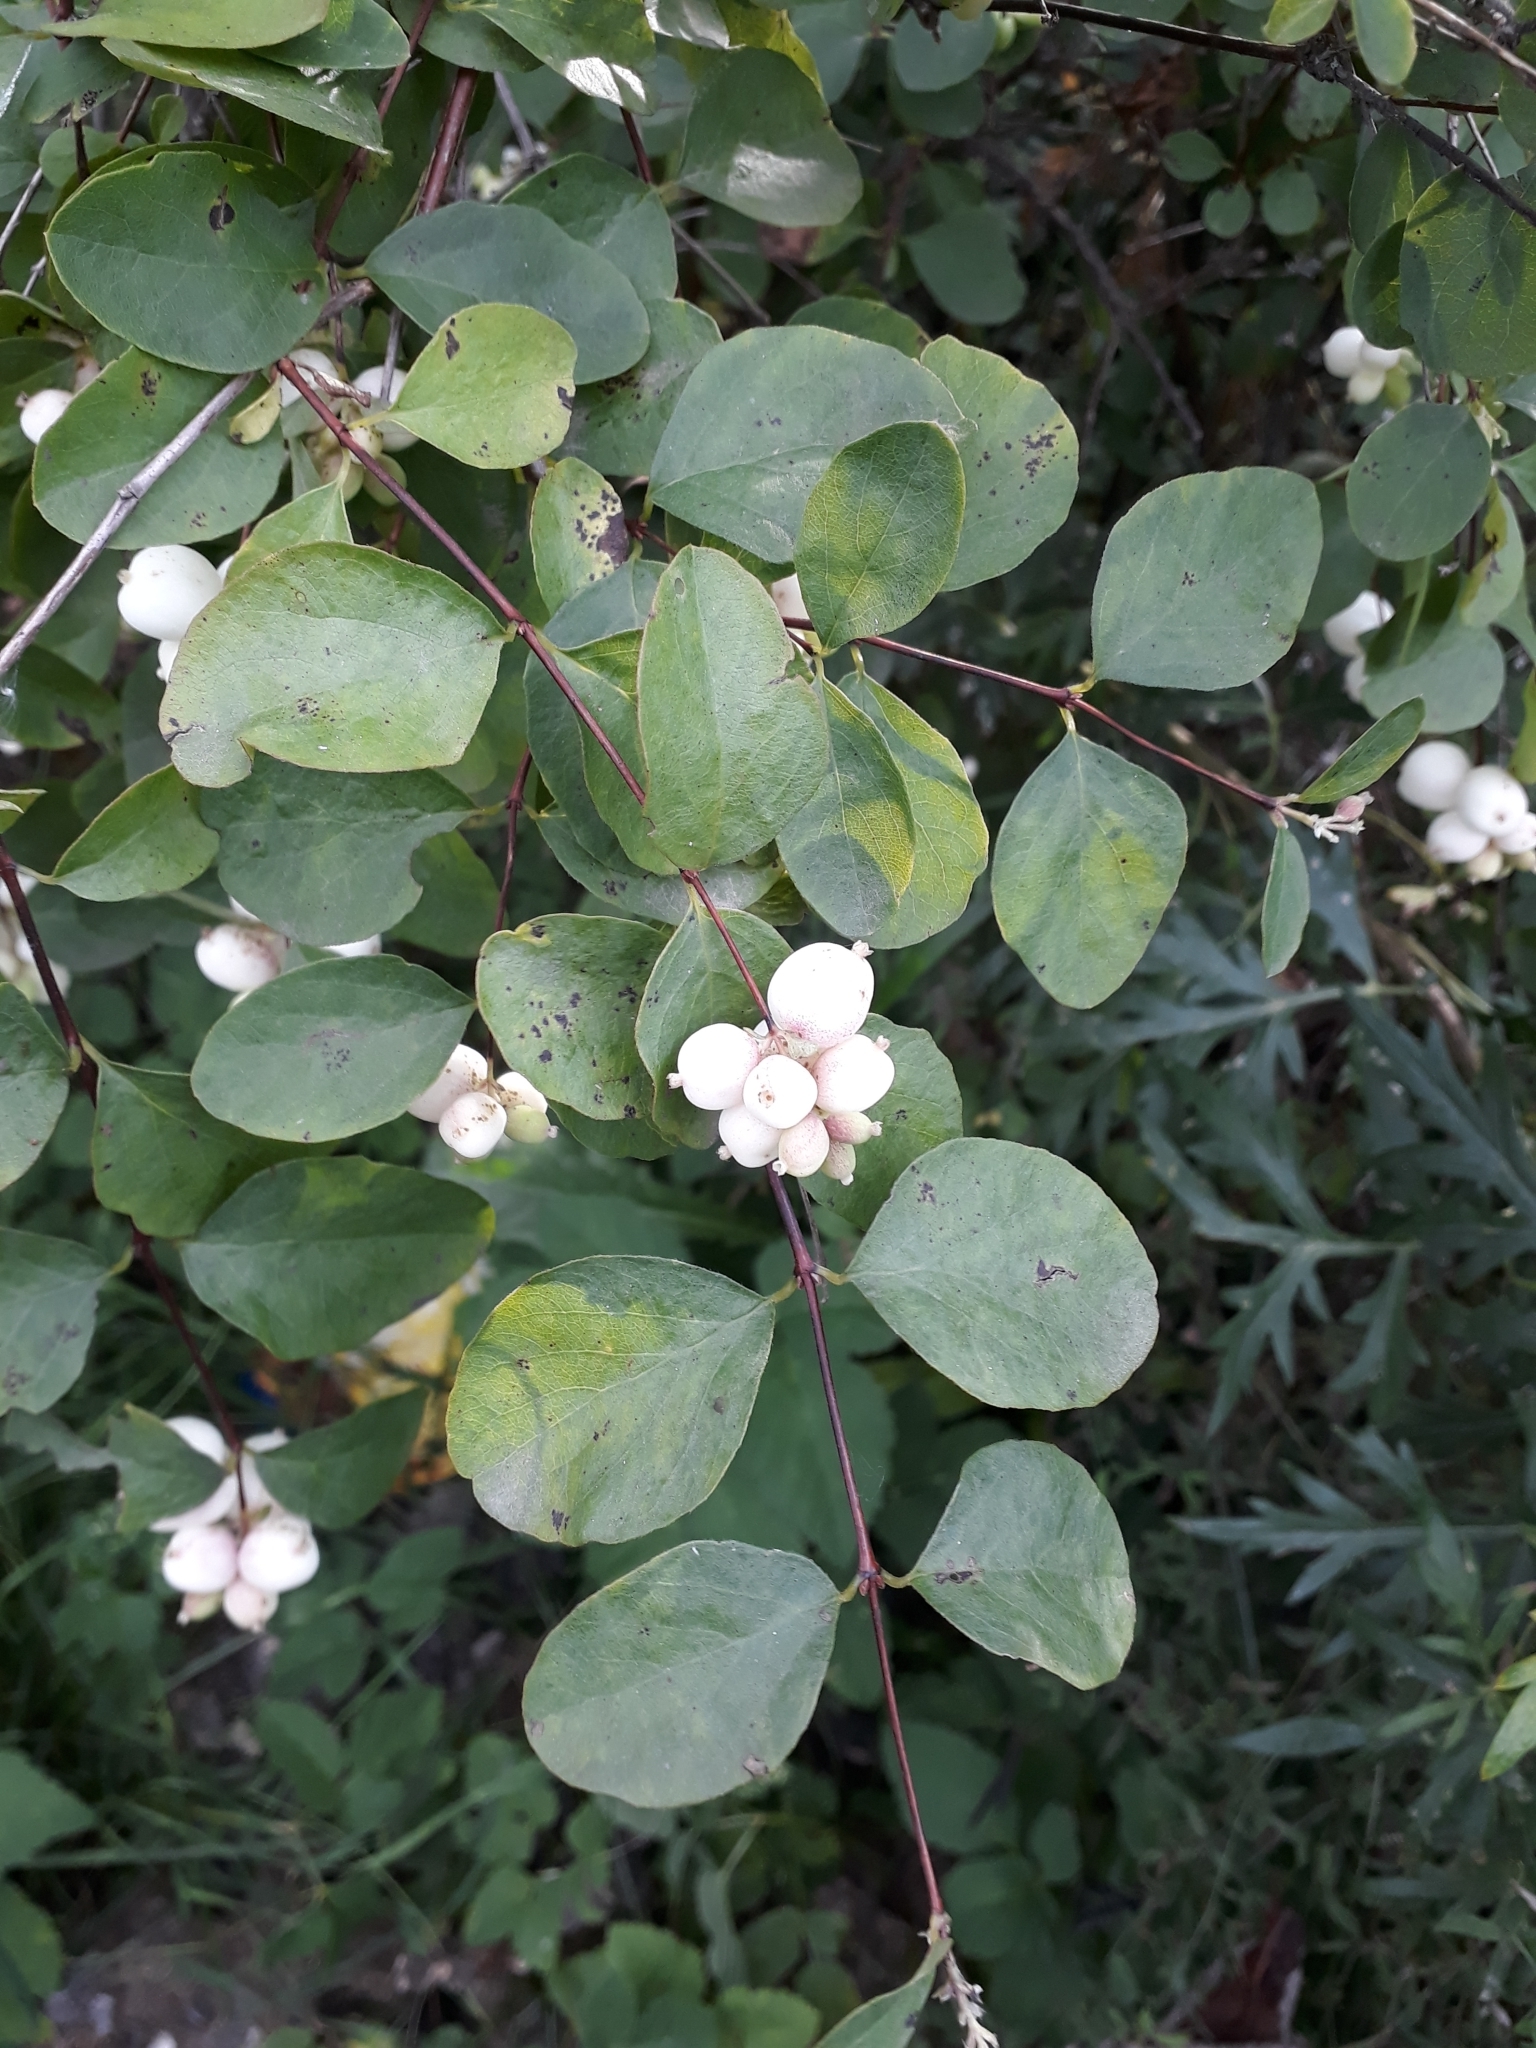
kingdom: Plantae
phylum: Tracheophyta
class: Magnoliopsida
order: Dipsacales
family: Caprifoliaceae
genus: Symphoricarpos
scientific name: Symphoricarpos albus
